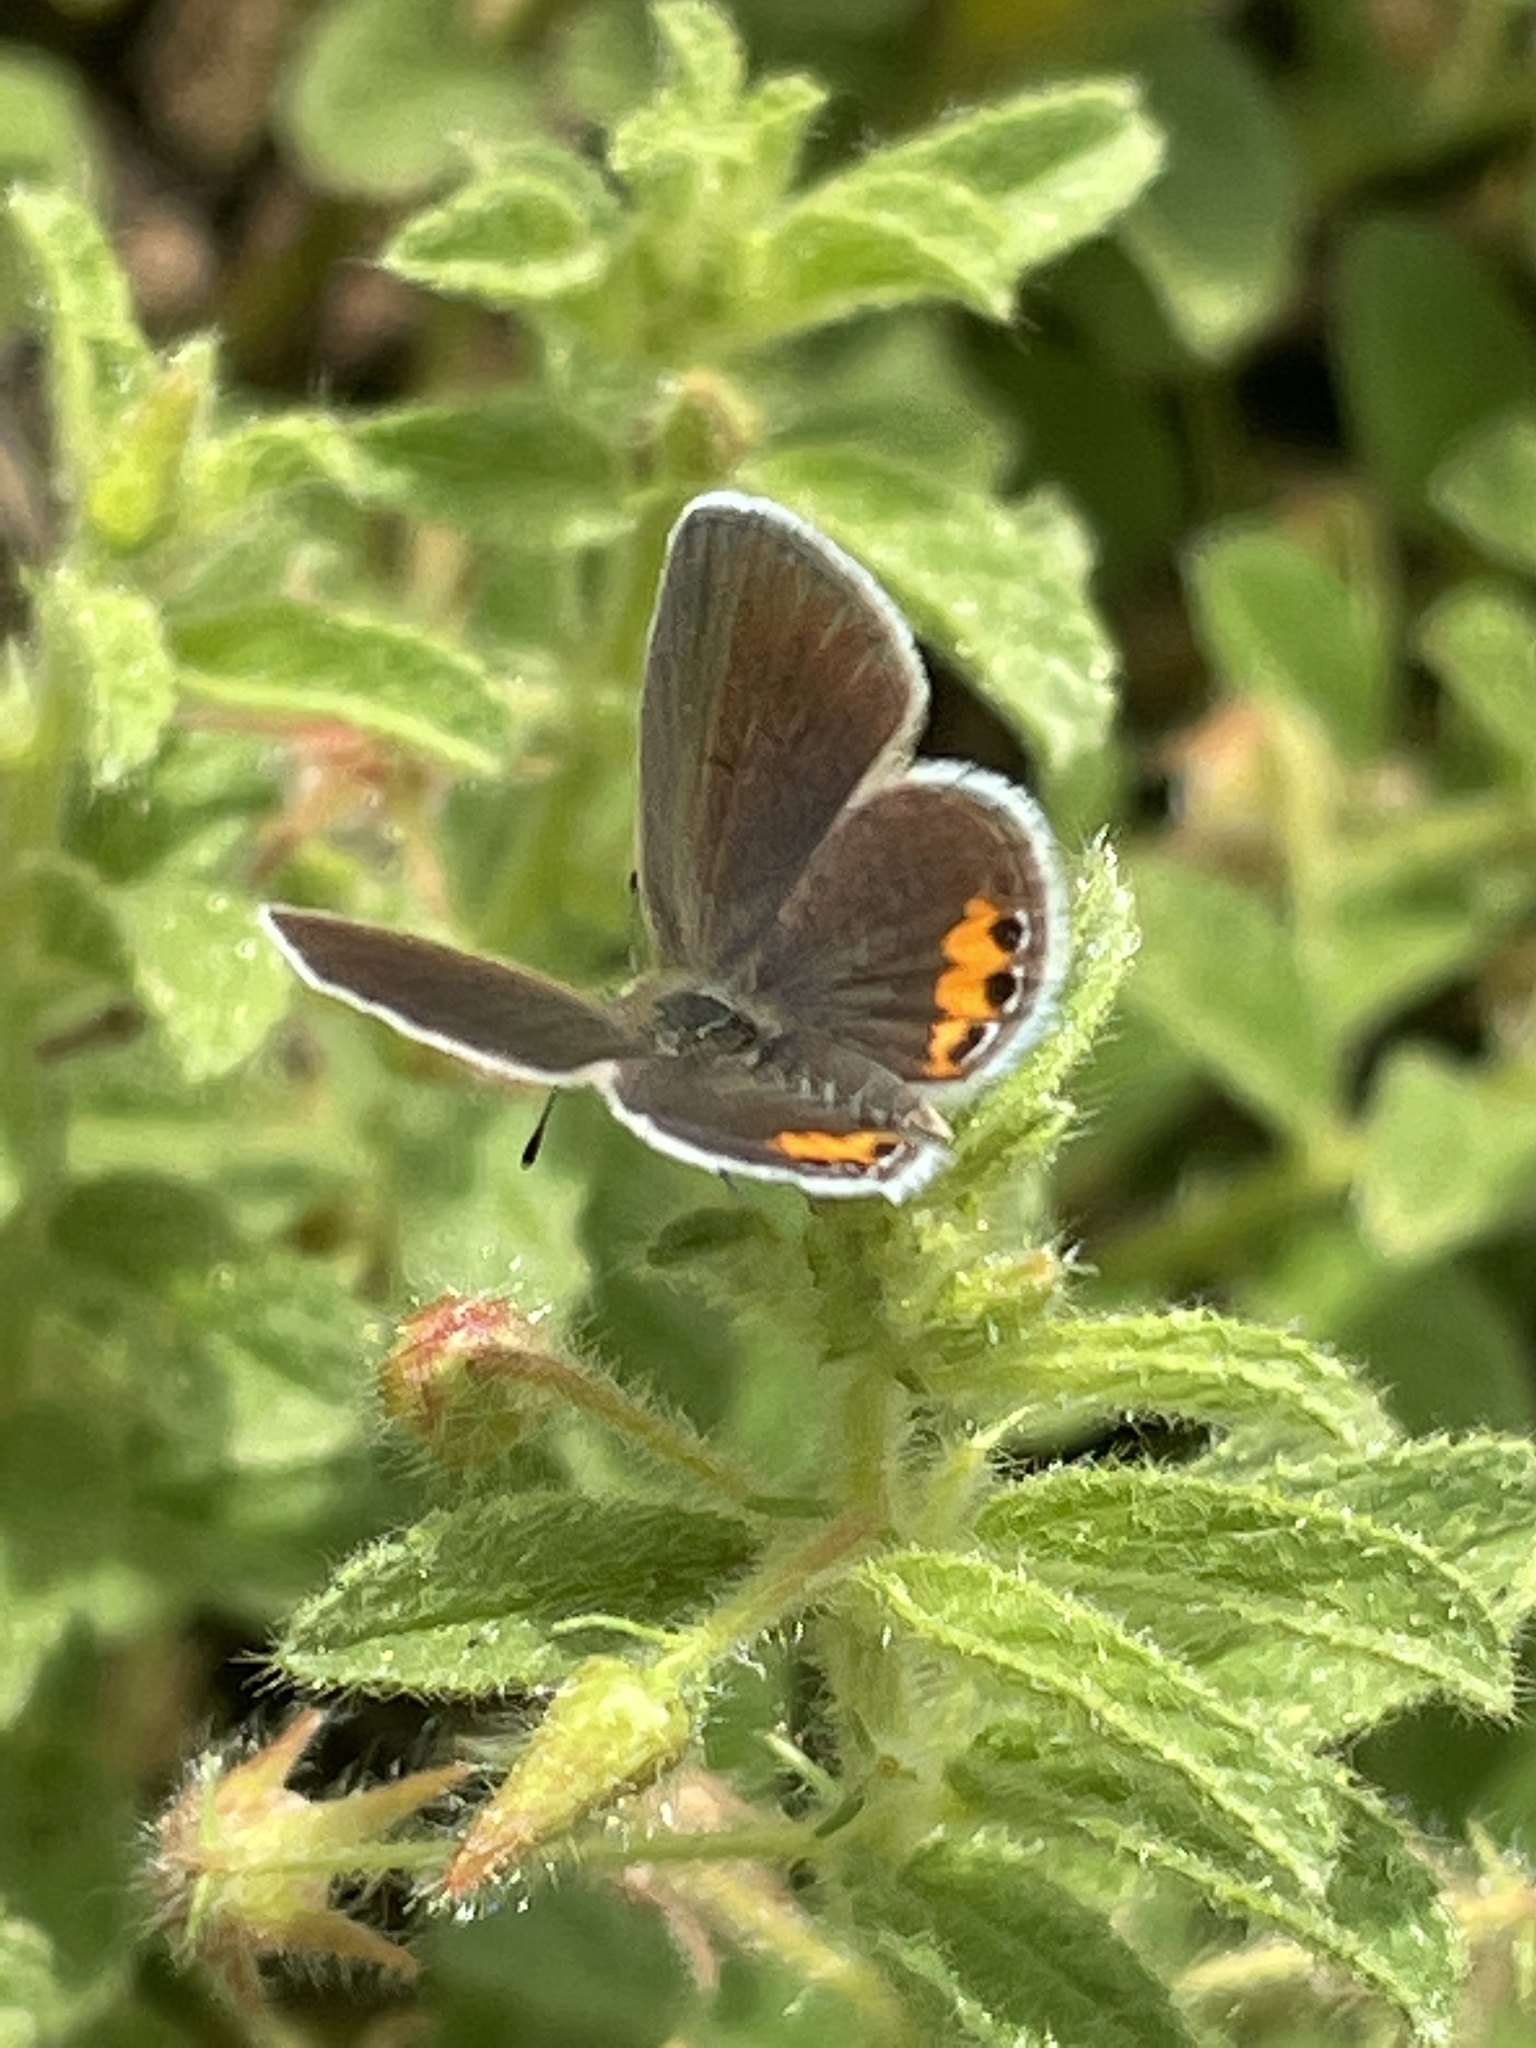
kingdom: Animalia
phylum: Arthropoda
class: Insecta
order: Lepidoptera
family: Lycaenidae
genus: Freyeria
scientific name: Freyeria trochylus
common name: Grass jewel
